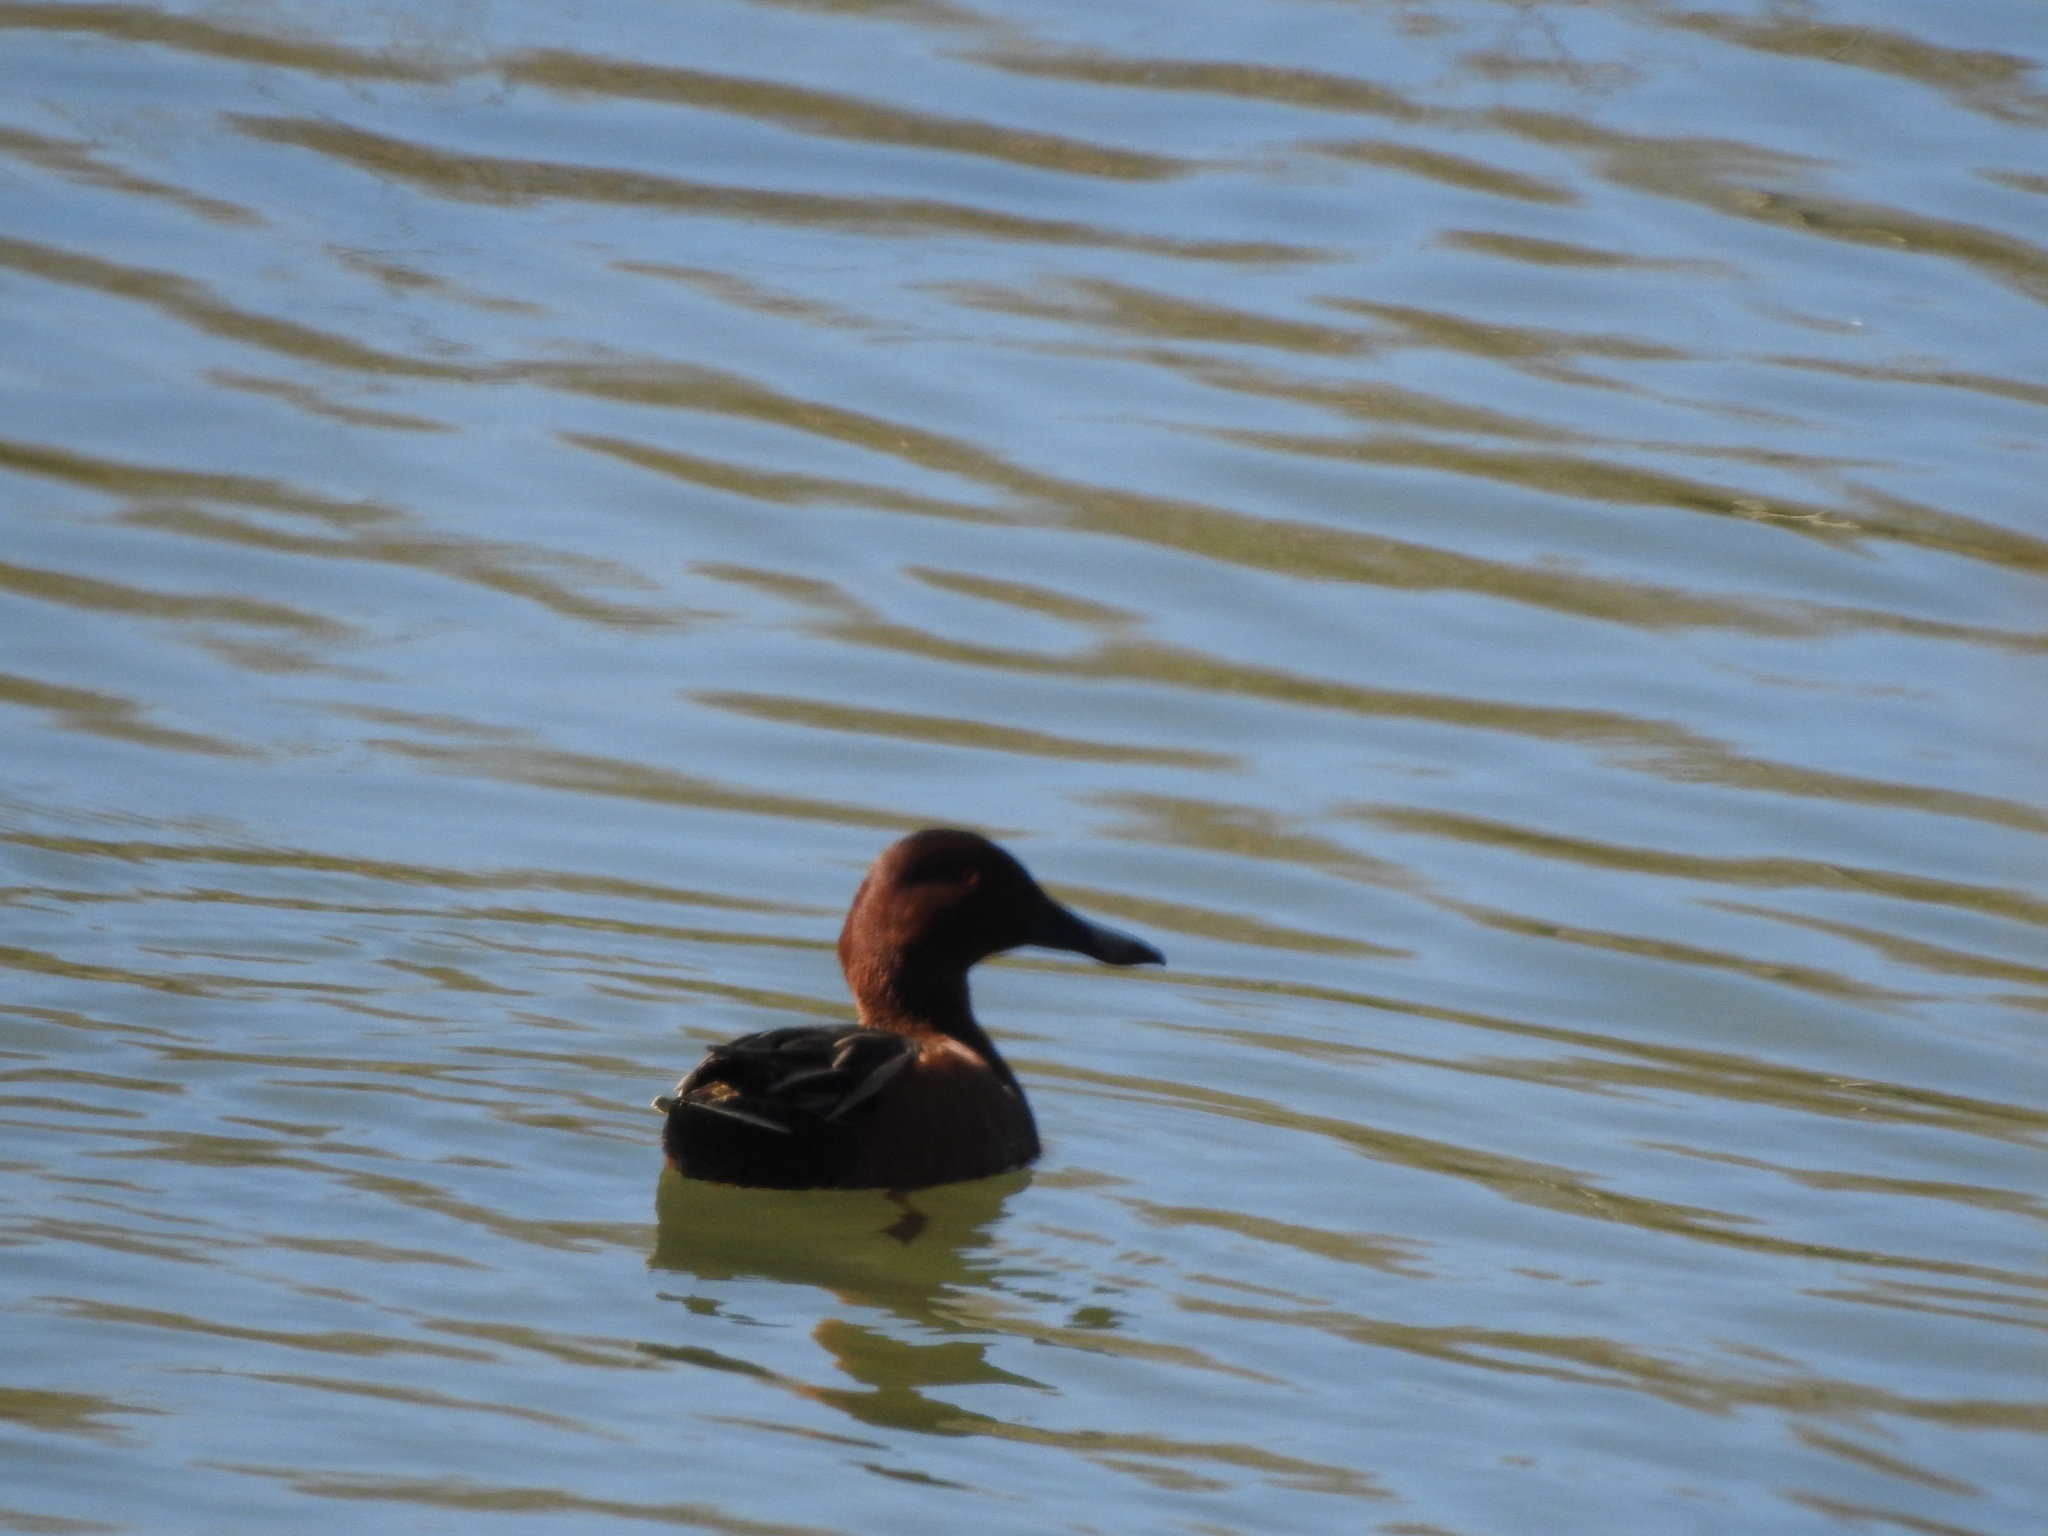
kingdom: Animalia
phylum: Chordata
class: Aves
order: Anseriformes
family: Anatidae
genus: Spatula
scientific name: Spatula cyanoptera
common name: Cinnamon teal
